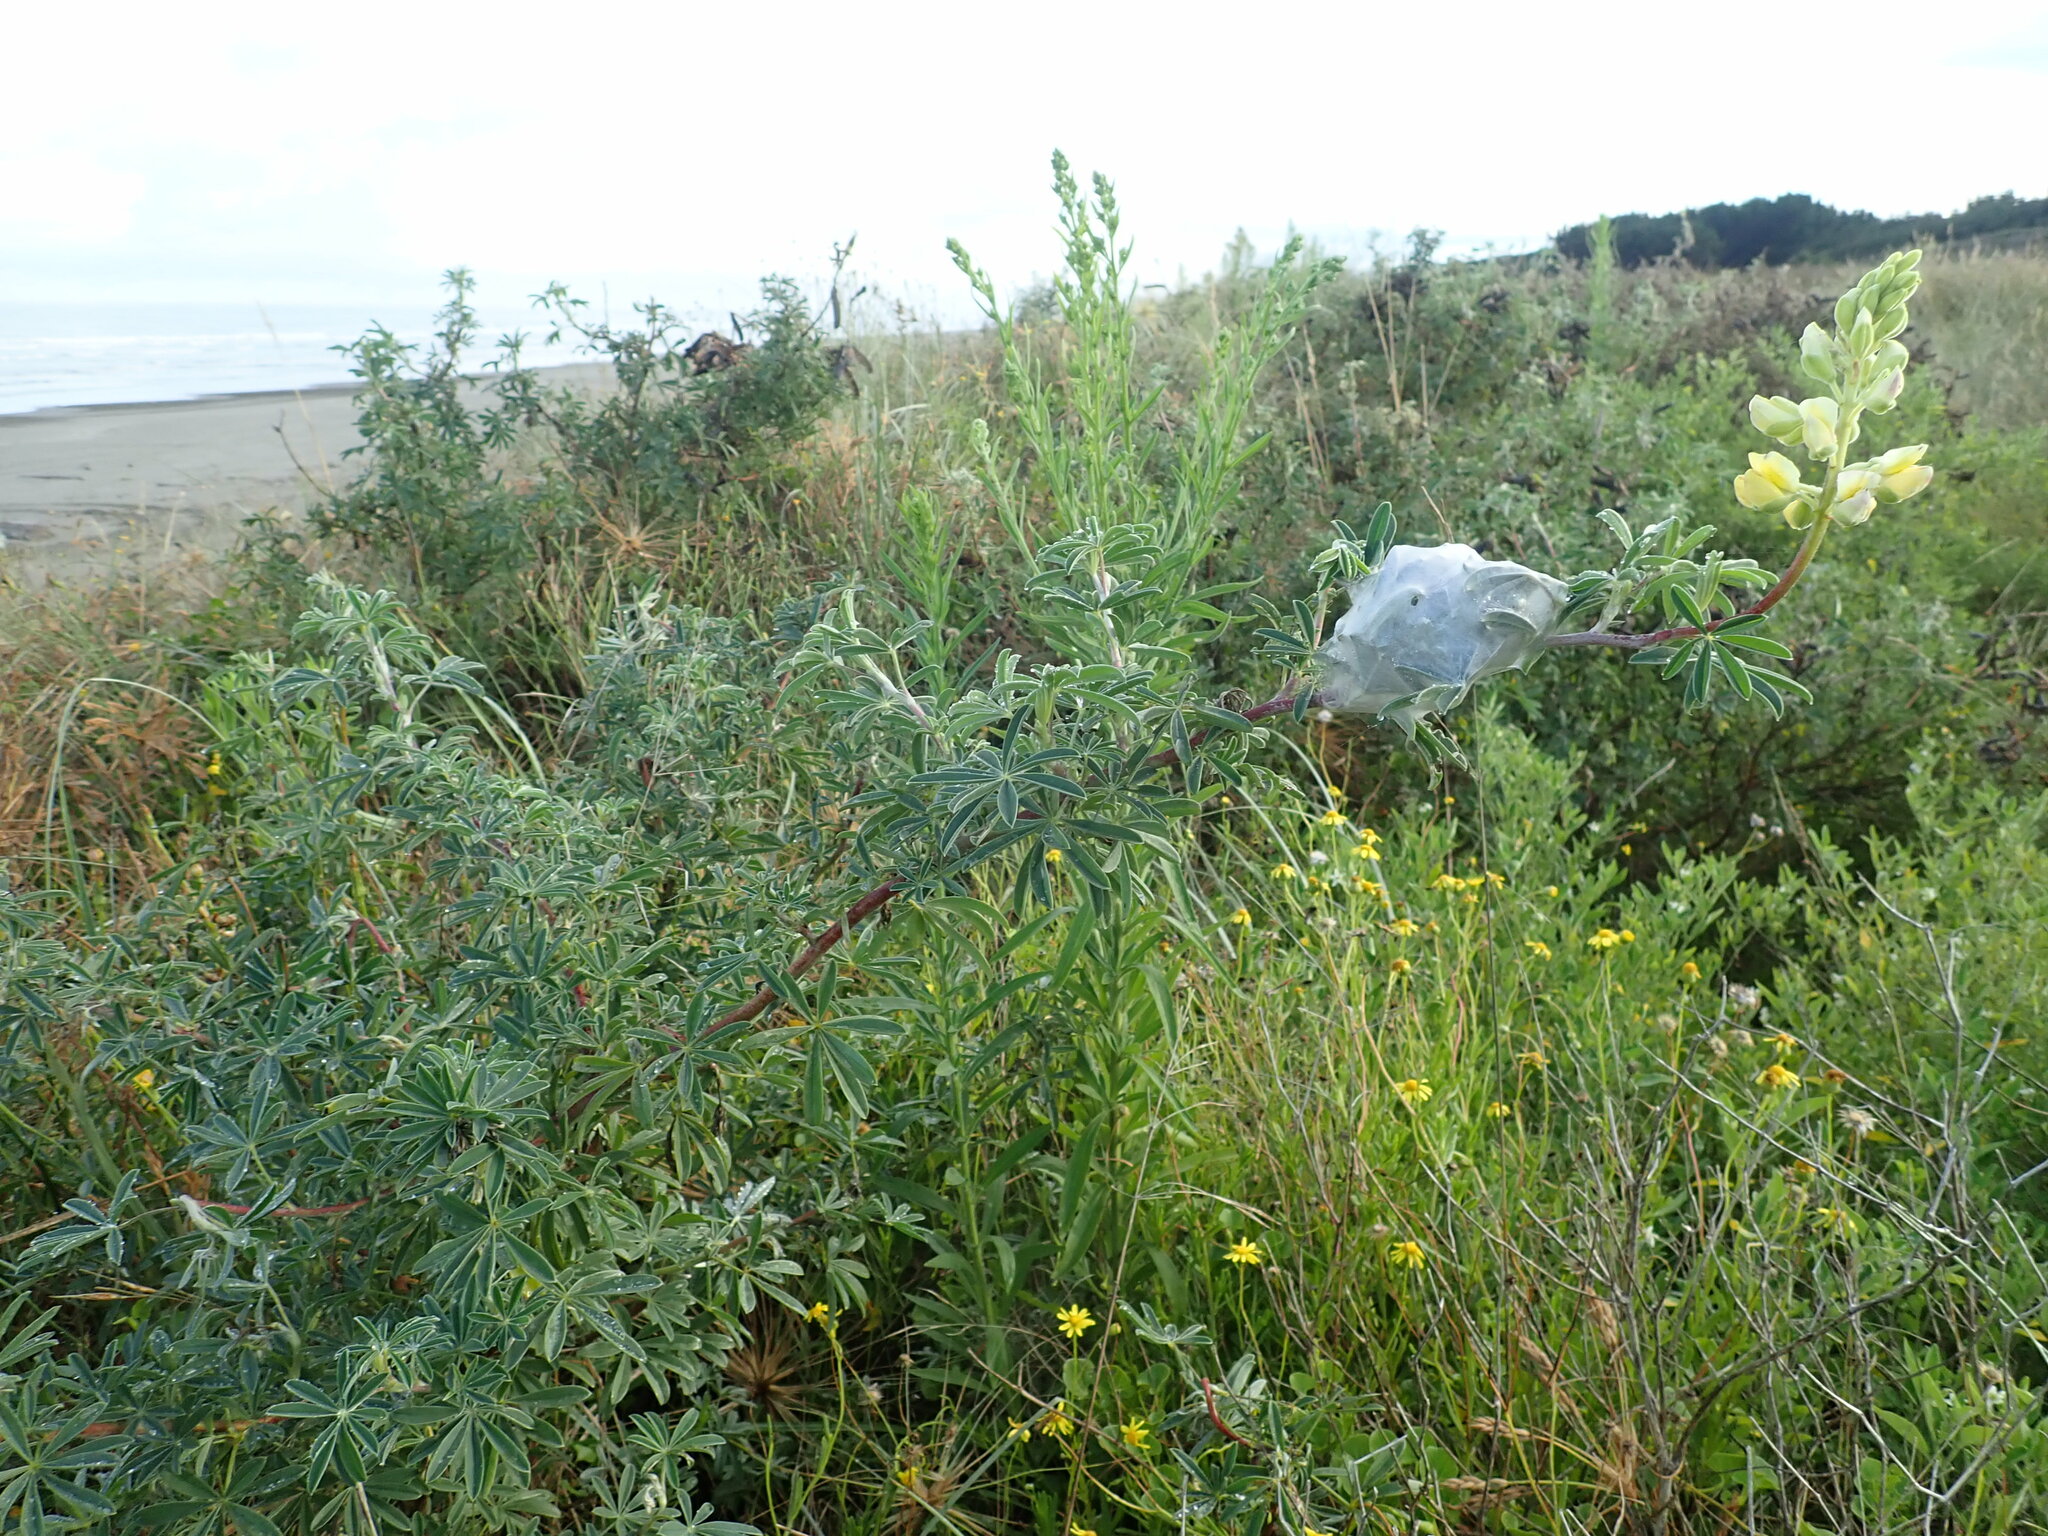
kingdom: Animalia
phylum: Arthropoda
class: Arachnida
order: Araneae
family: Pisauridae
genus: Dolomedes
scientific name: Dolomedes minor
